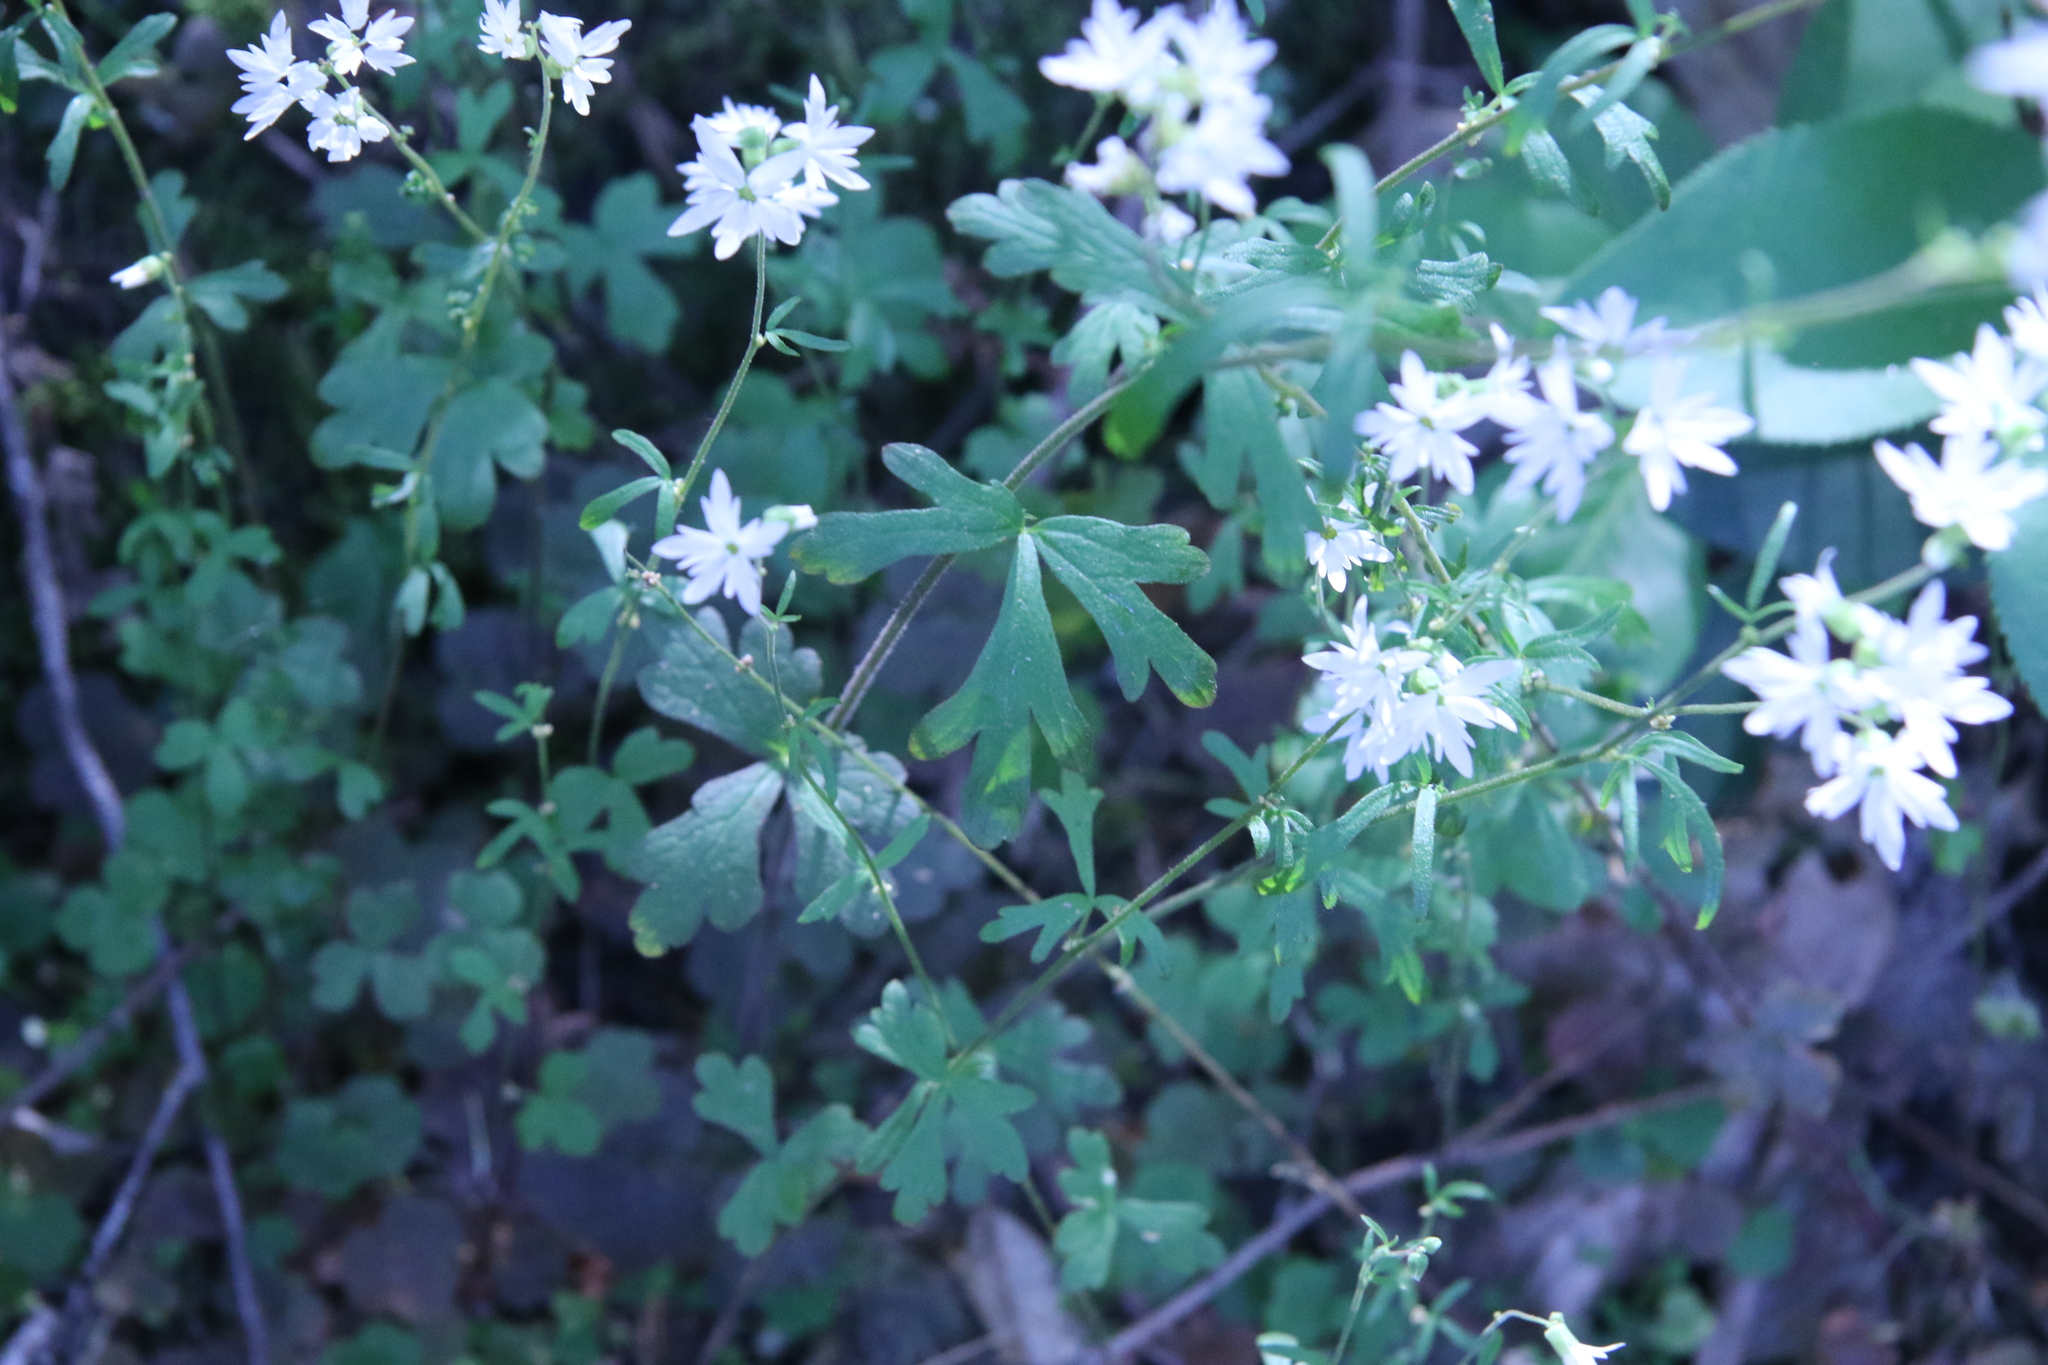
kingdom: Plantae
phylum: Tracheophyta
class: Magnoliopsida
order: Saxifragales
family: Saxifragaceae
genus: Lithophragma
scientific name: Lithophragma heterophyllum
